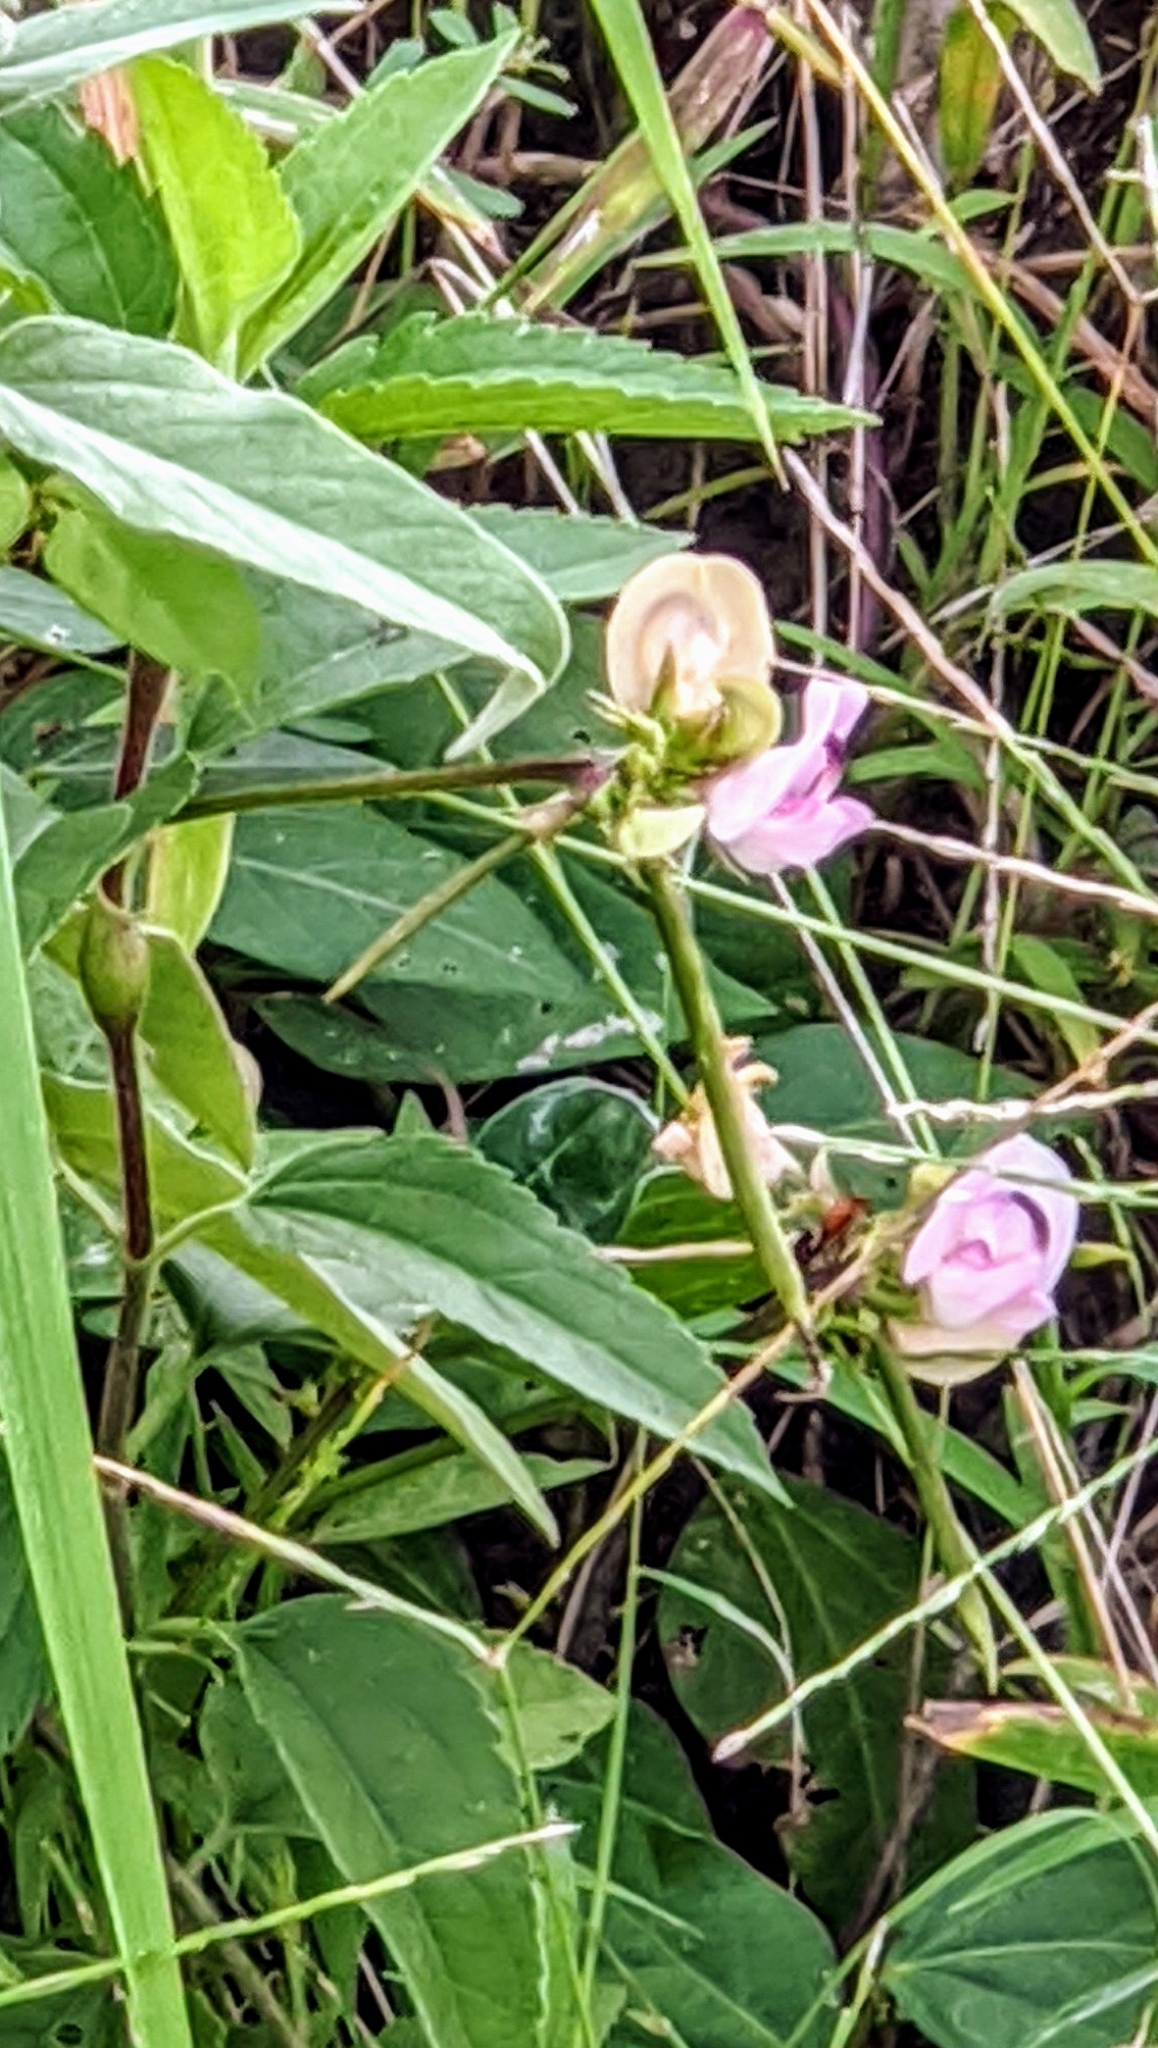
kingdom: Plantae
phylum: Tracheophyta
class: Magnoliopsida
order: Fabales
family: Fabaceae
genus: Strophostyles
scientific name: Strophostyles helvola
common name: Trailing wild bean
